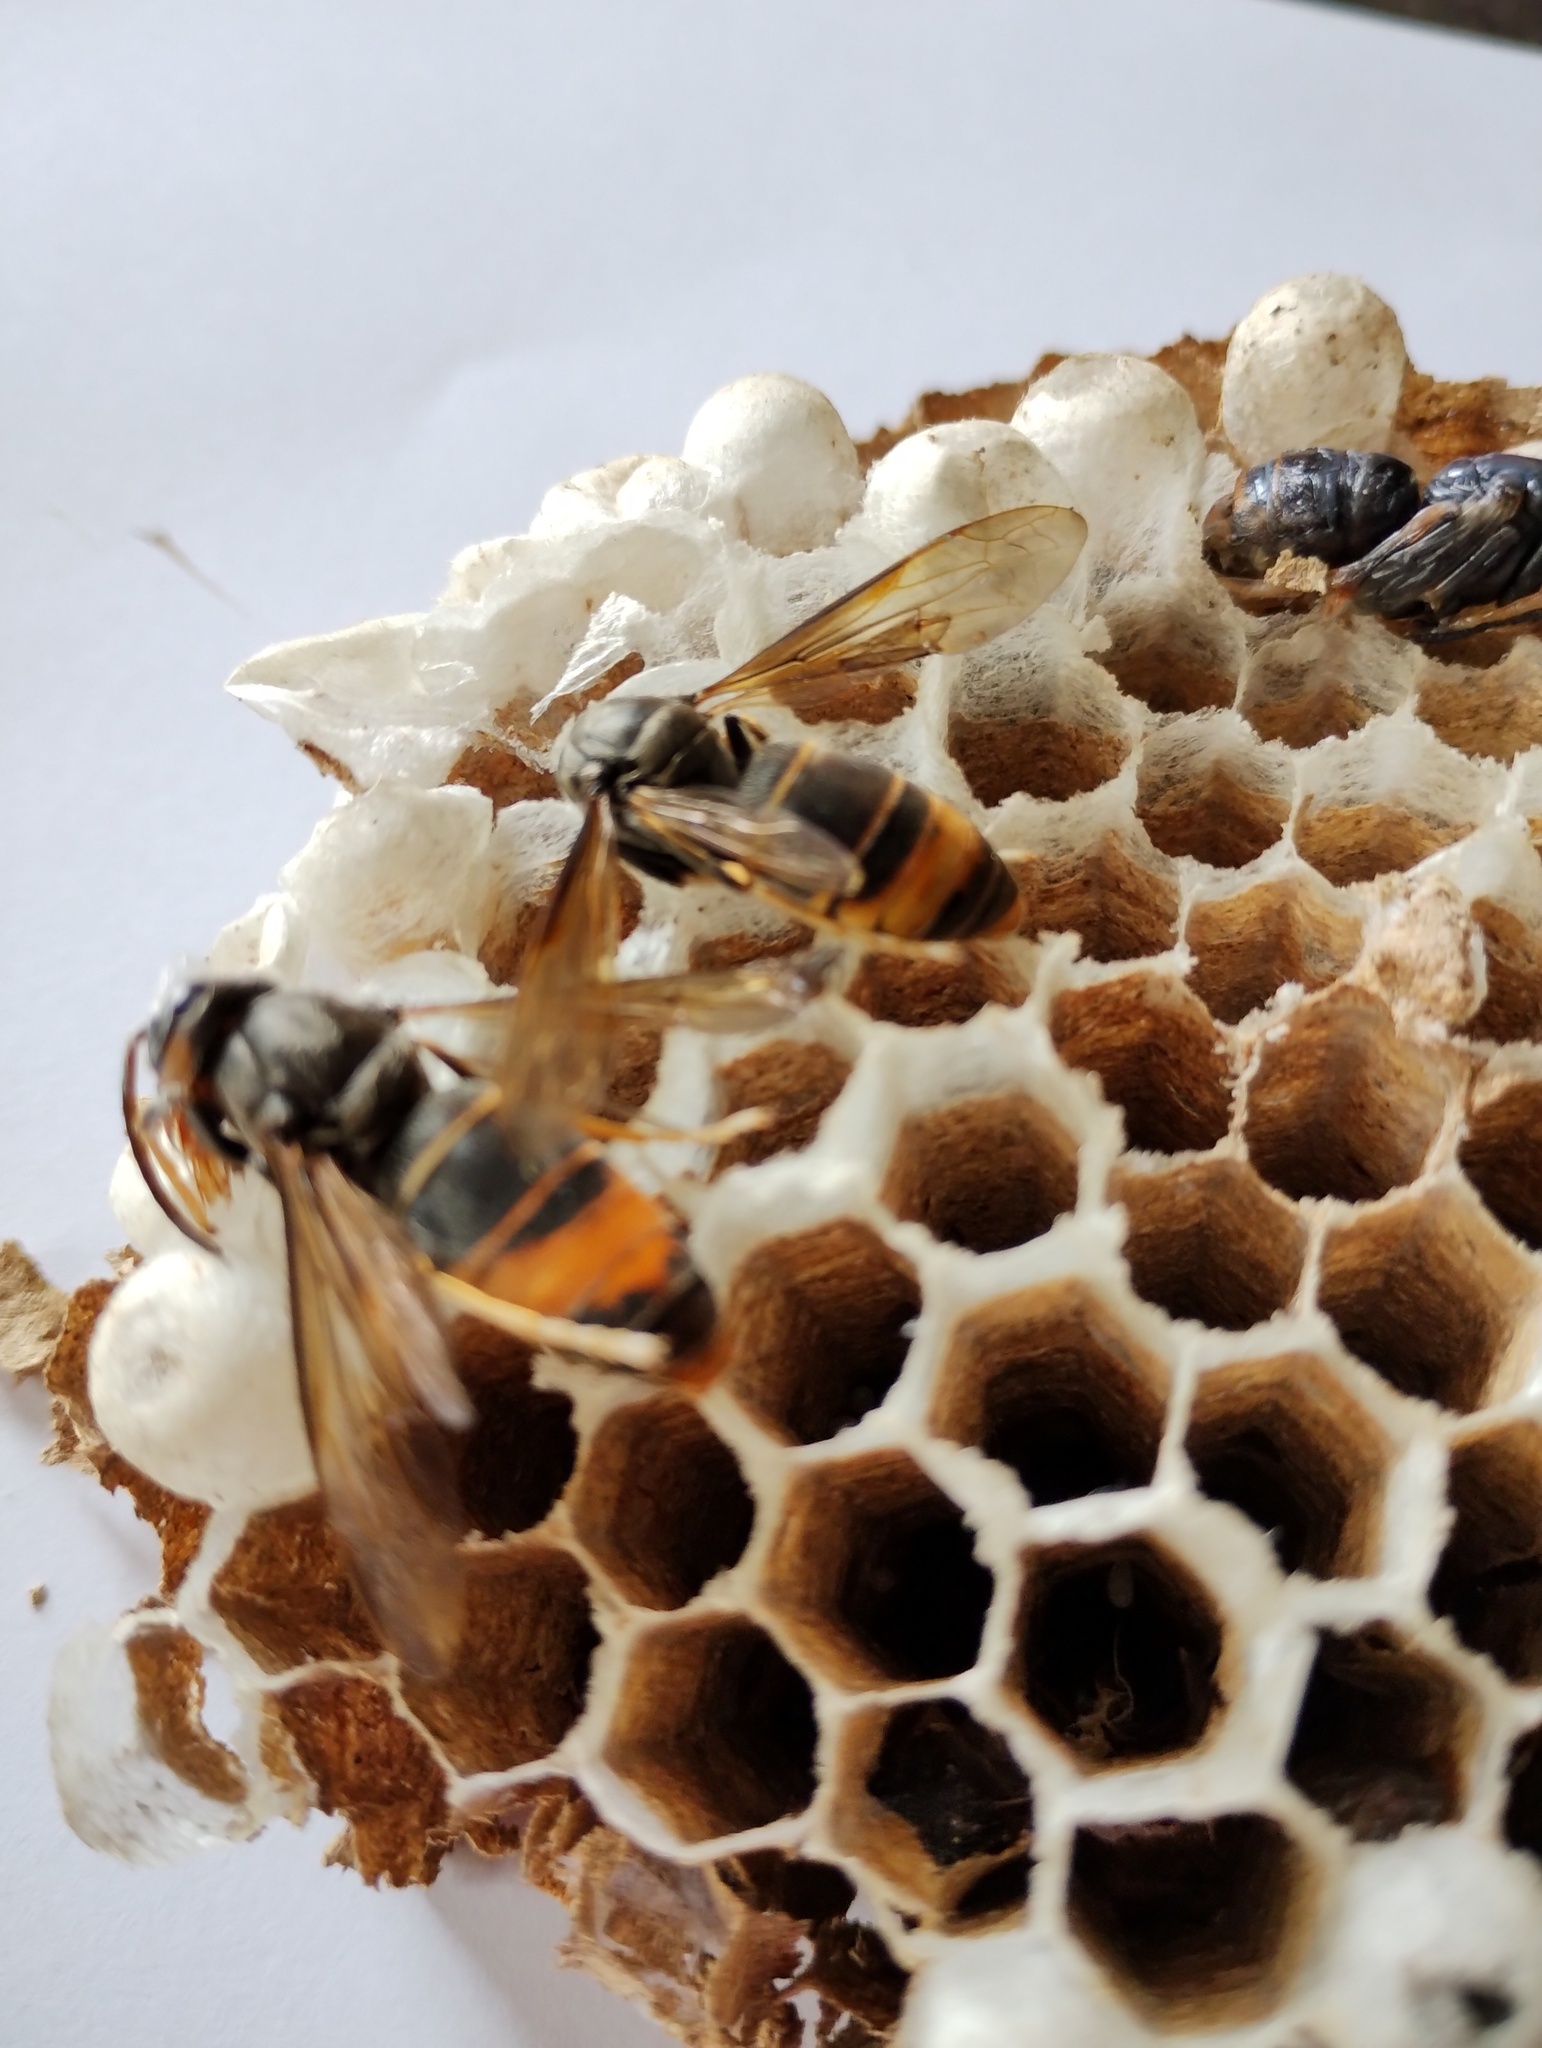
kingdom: Animalia
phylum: Arthropoda
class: Insecta
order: Hymenoptera
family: Vespidae
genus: Vespa
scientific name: Vespa velutina
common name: Asian hornet
